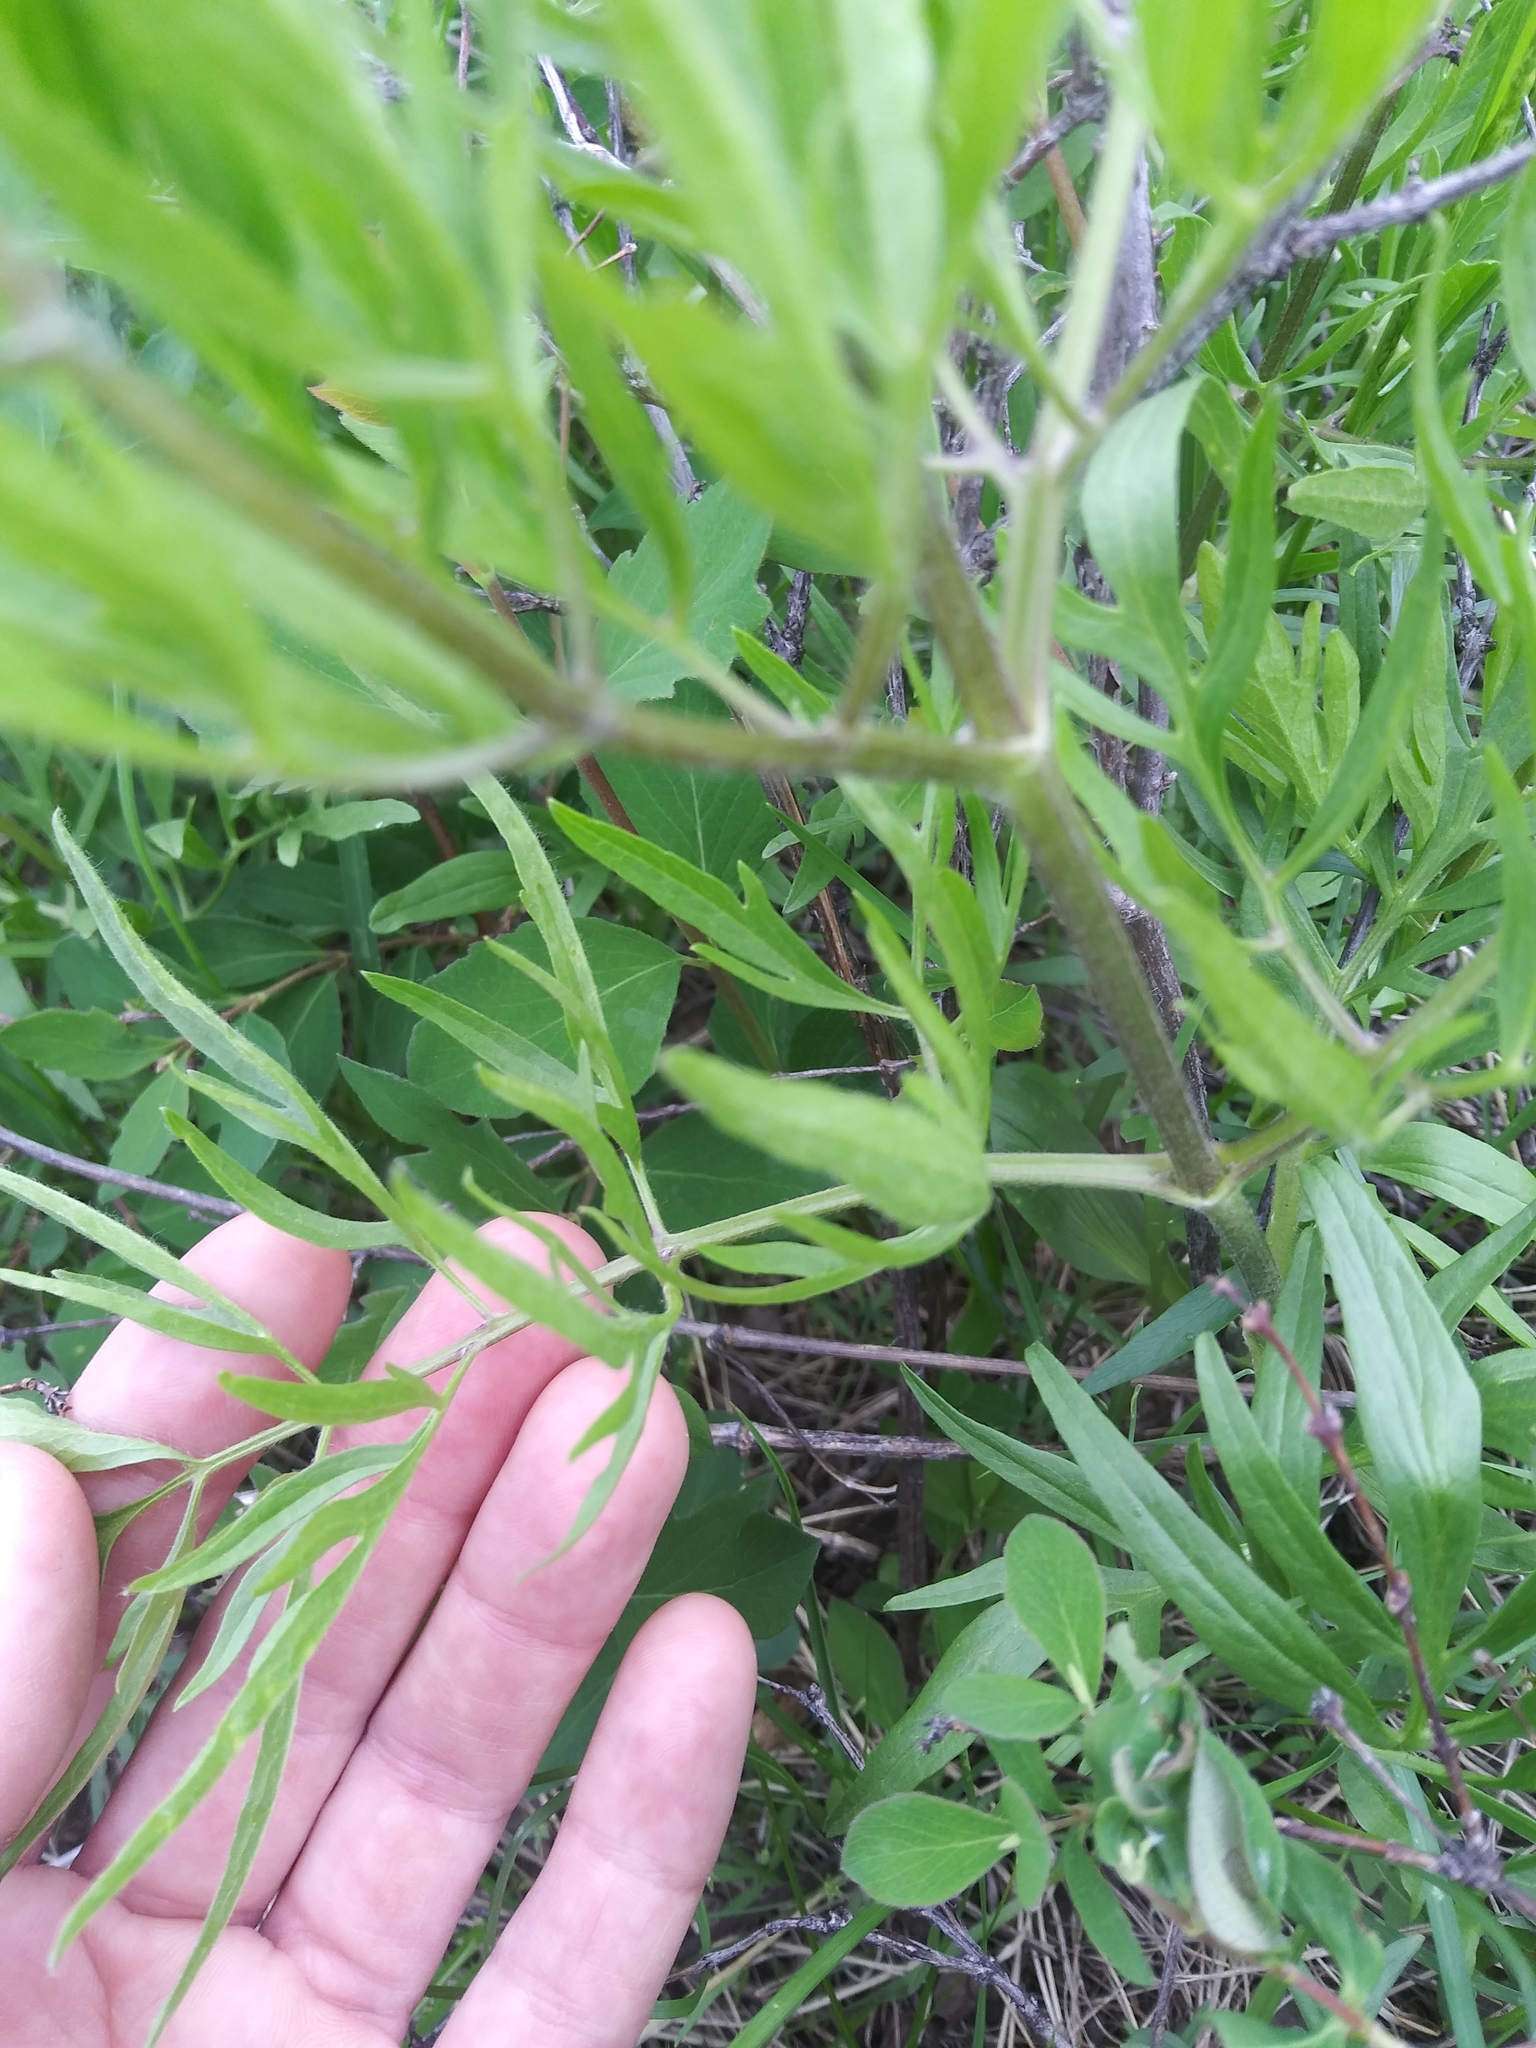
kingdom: Plantae
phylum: Tracheophyta
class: Magnoliopsida
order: Ranunculales
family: Ranunculaceae
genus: Clematis
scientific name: Clematis hirsutissima
